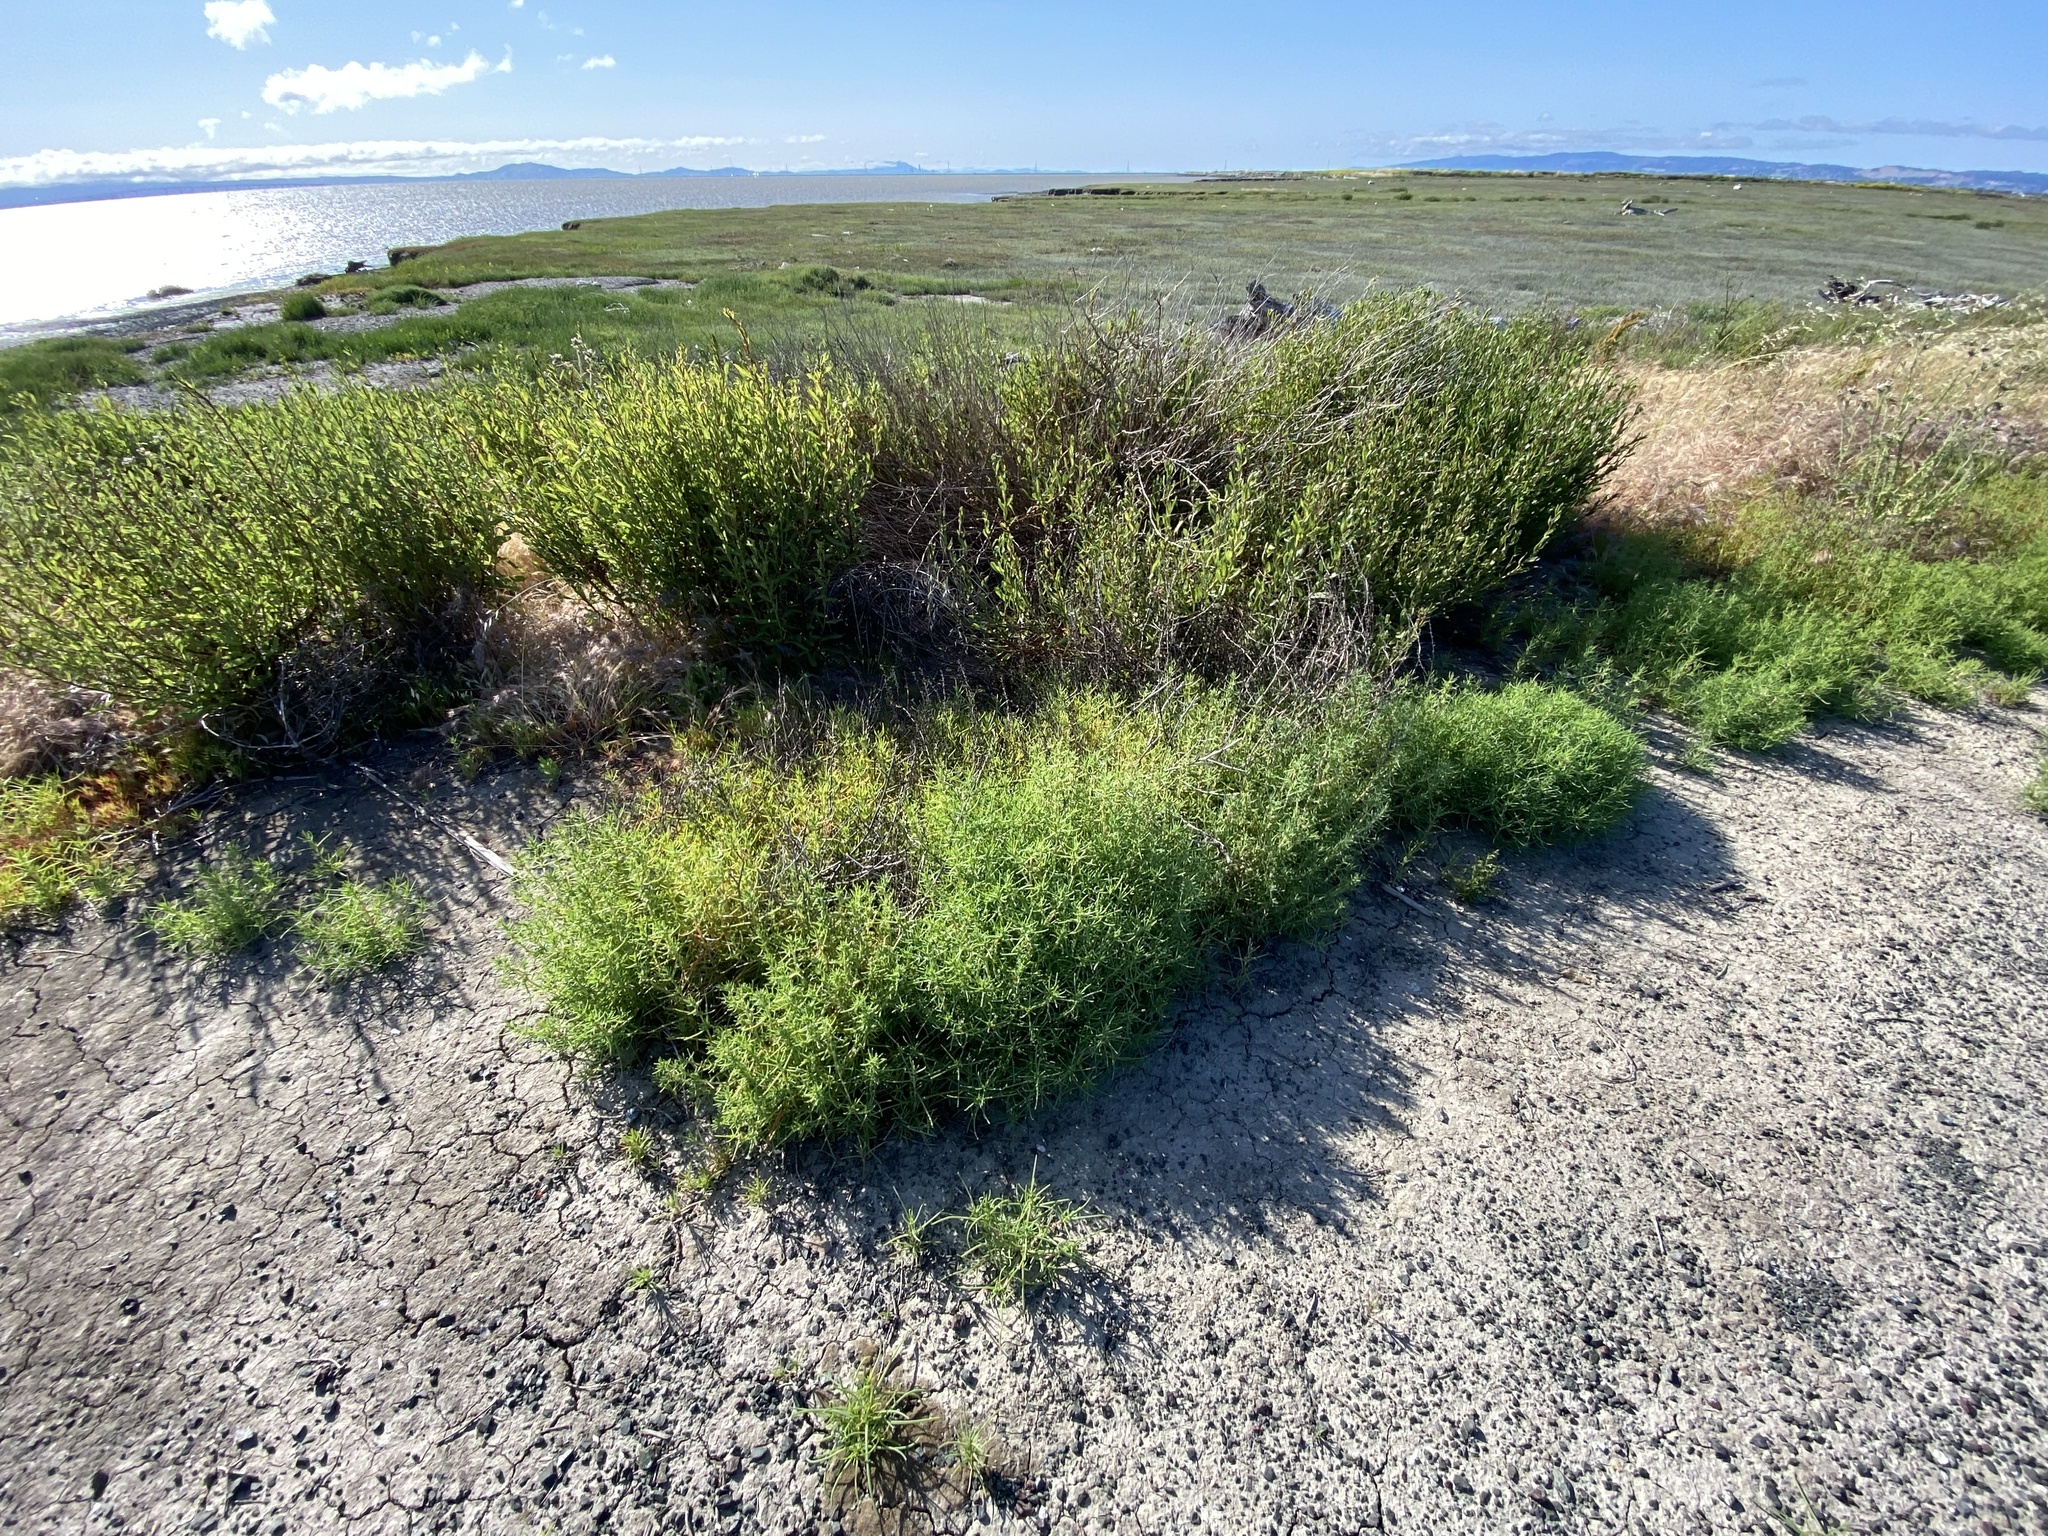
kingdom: Plantae
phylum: Tracheophyta
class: Magnoliopsida
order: Caryophyllales
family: Amaranthaceae
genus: Salsola
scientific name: Salsola soda
